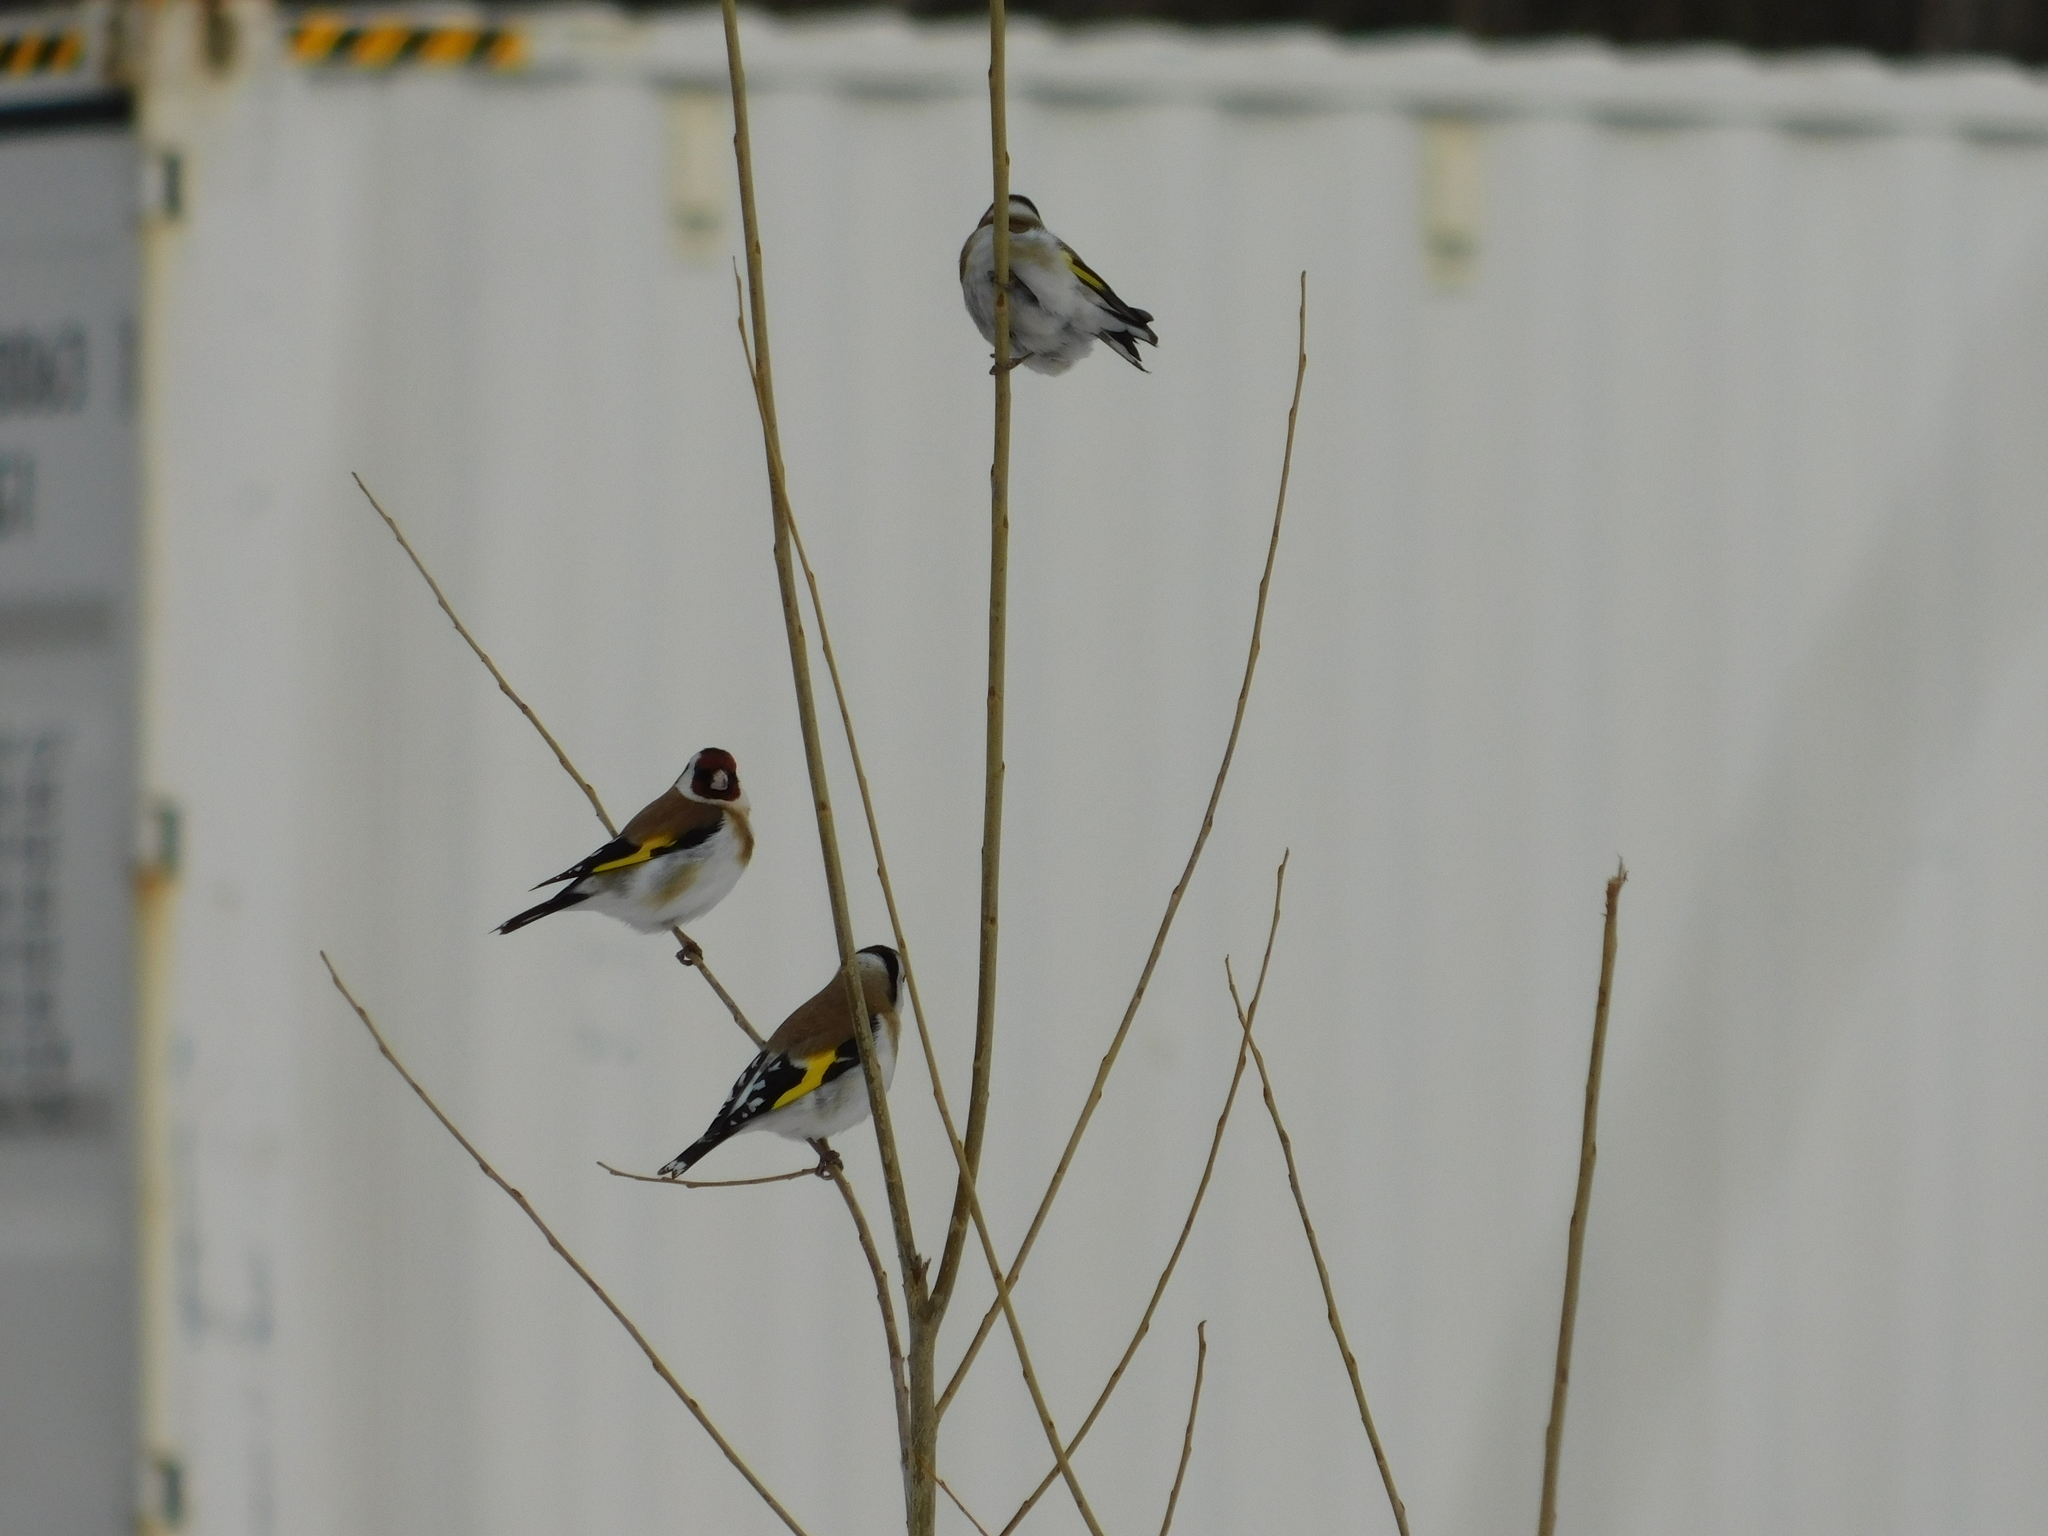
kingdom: Animalia
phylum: Chordata
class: Aves
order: Passeriformes
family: Fringillidae
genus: Carduelis
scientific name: Carduelis carduelis
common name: European goldfinch
